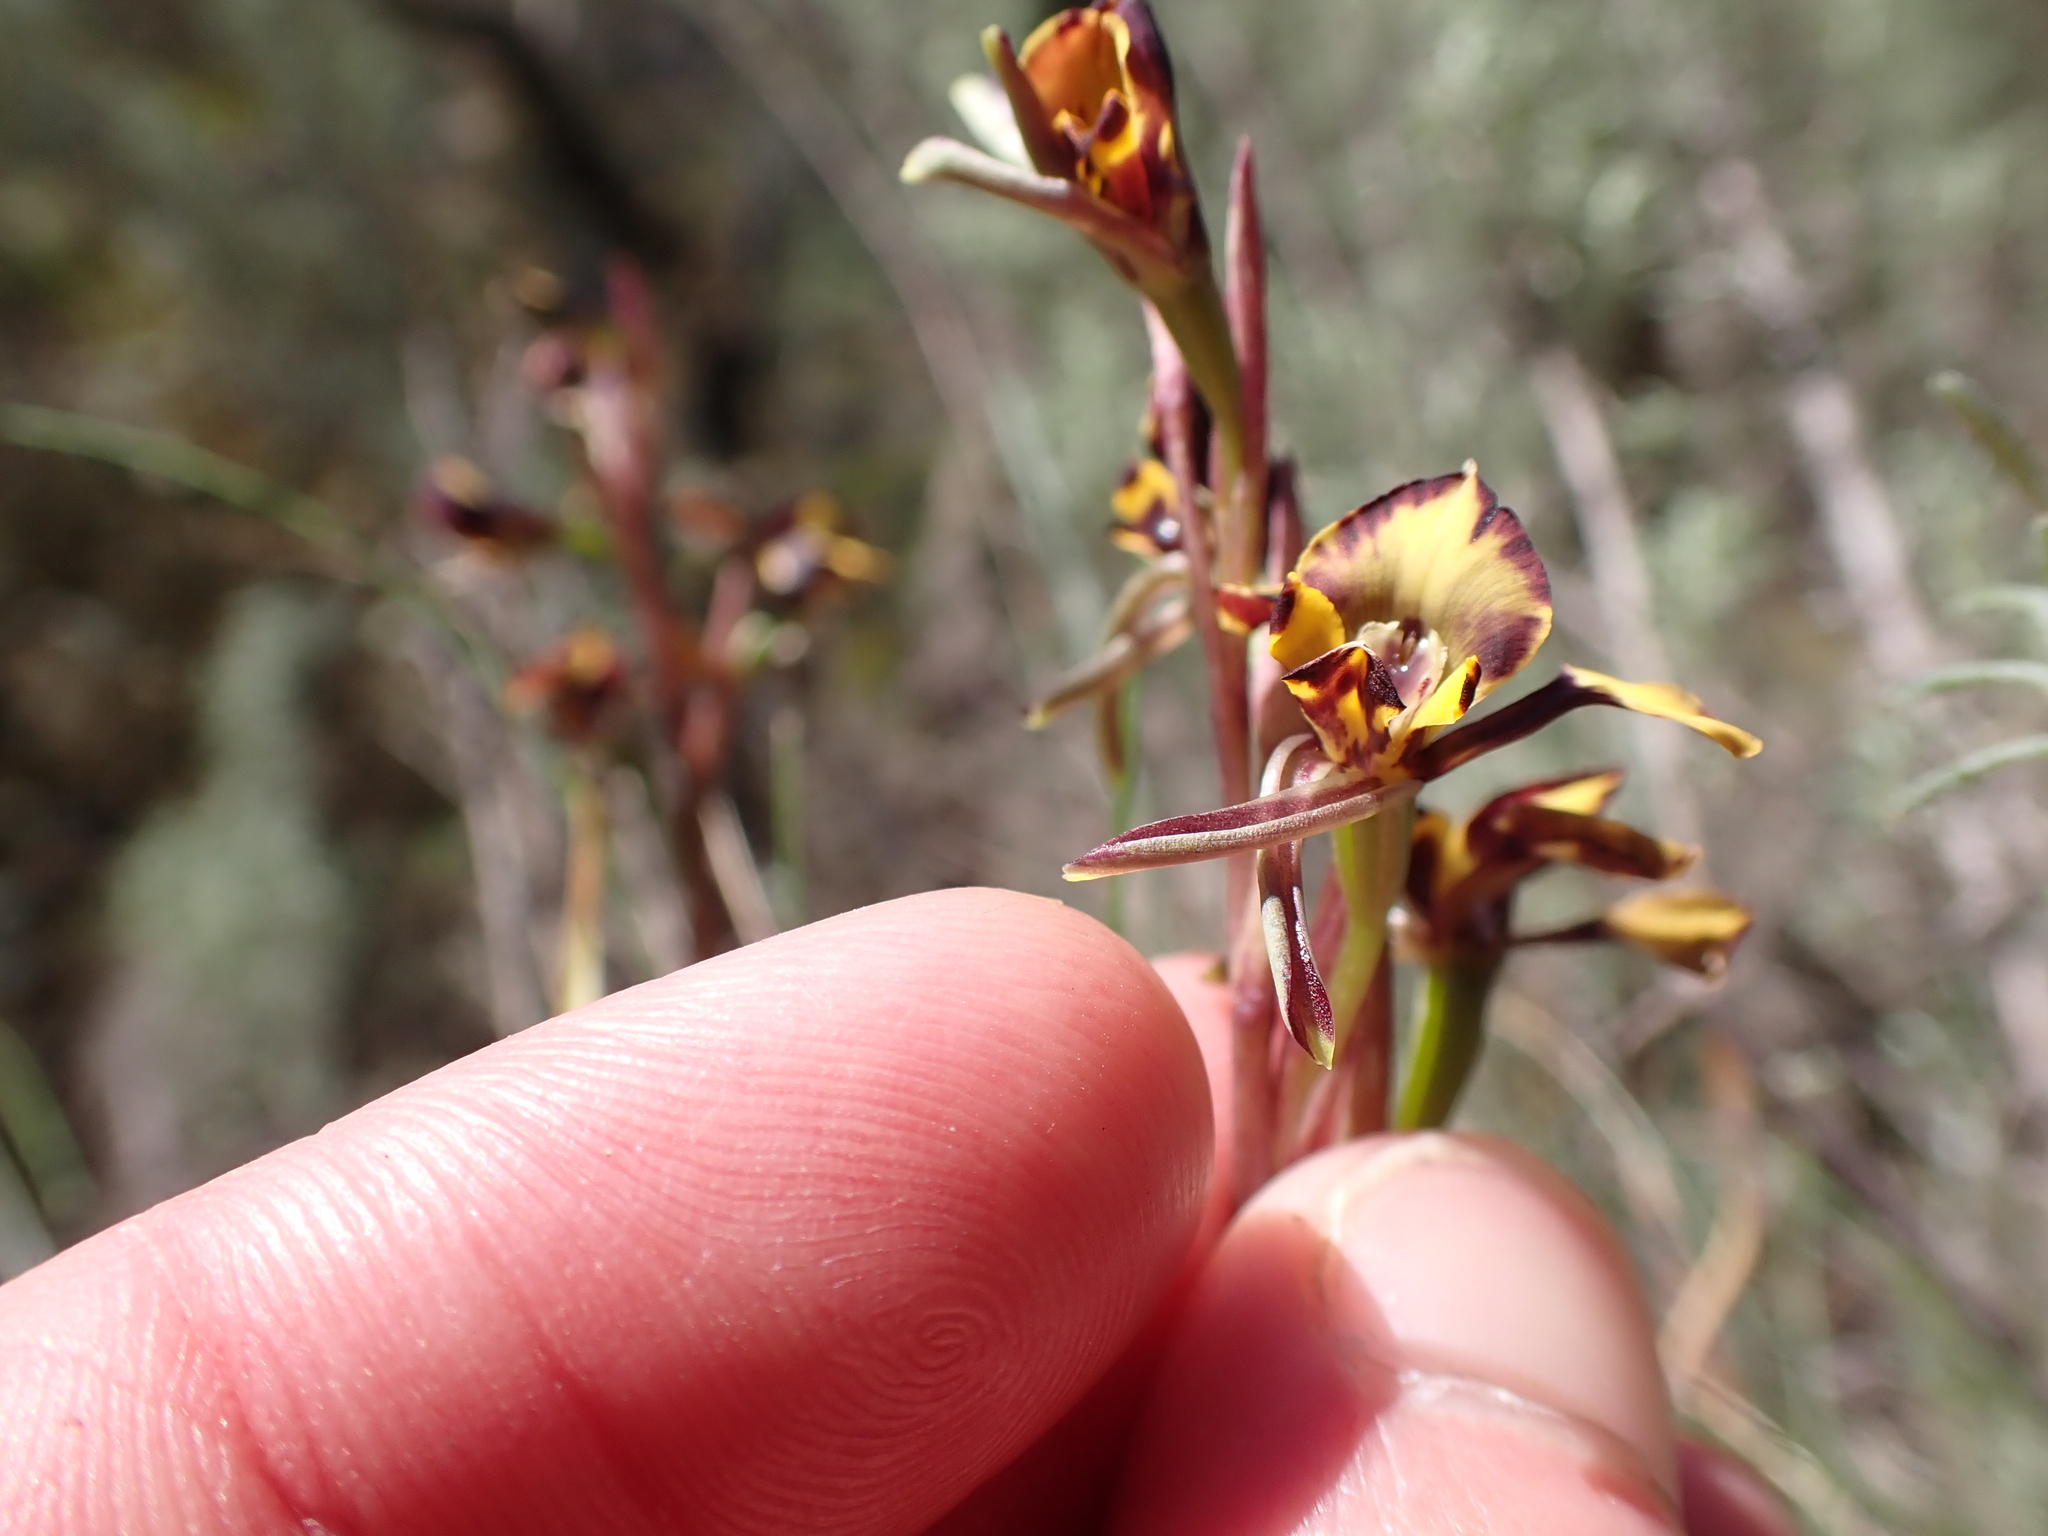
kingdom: Plantae
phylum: Tracheophyta
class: Liliopsida
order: Asparagales
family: Orchidaceae
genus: Diuris
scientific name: Diuris pardina
